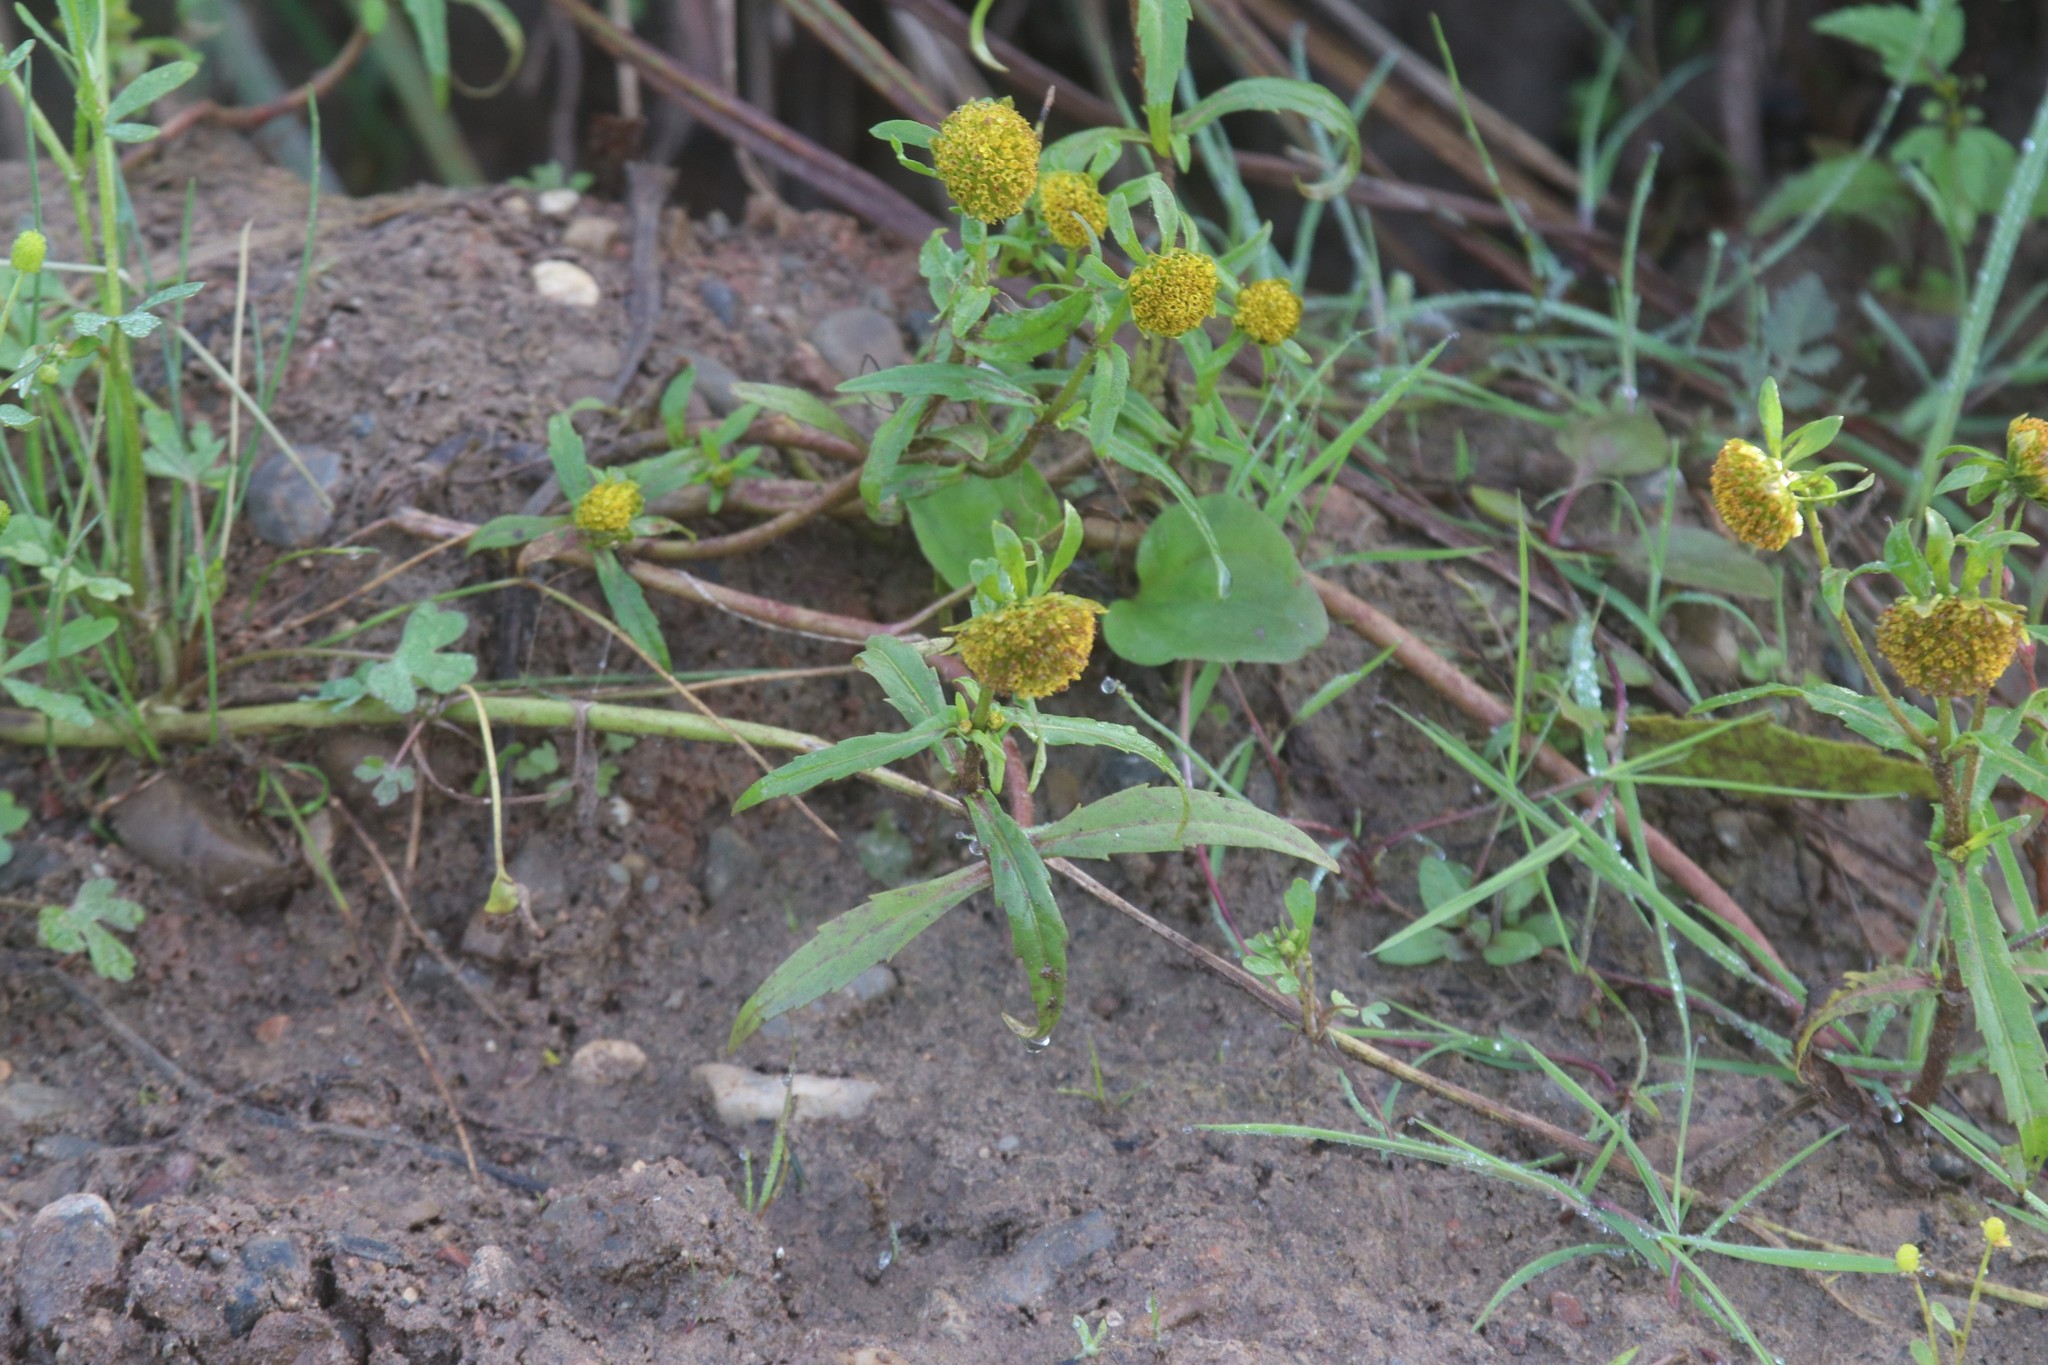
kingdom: Plantae
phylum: Tracheophyta
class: Magnoliopsida
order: Asterales
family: Asteraceae
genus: Bidens
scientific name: Bidens cernua
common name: Nodding bur-marigold
